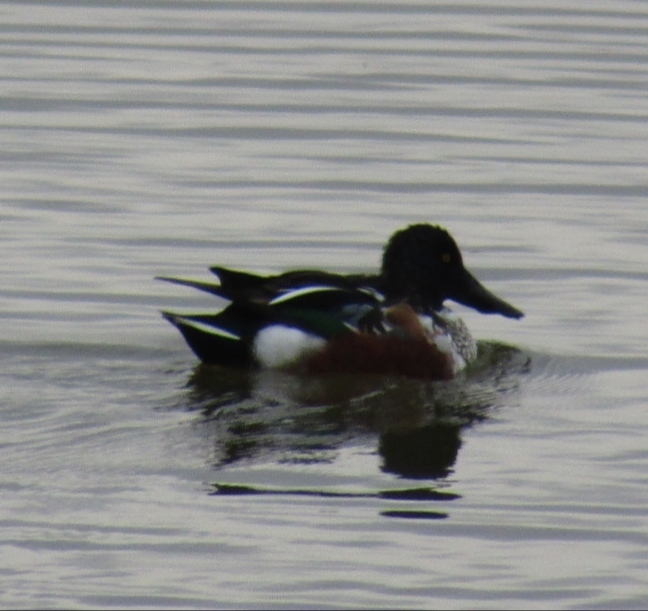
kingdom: Animalia
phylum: Chordata
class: Aves
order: Anseriformes
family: Anatidae
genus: Spatula
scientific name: Spatula clypeata
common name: Northern shoveler
